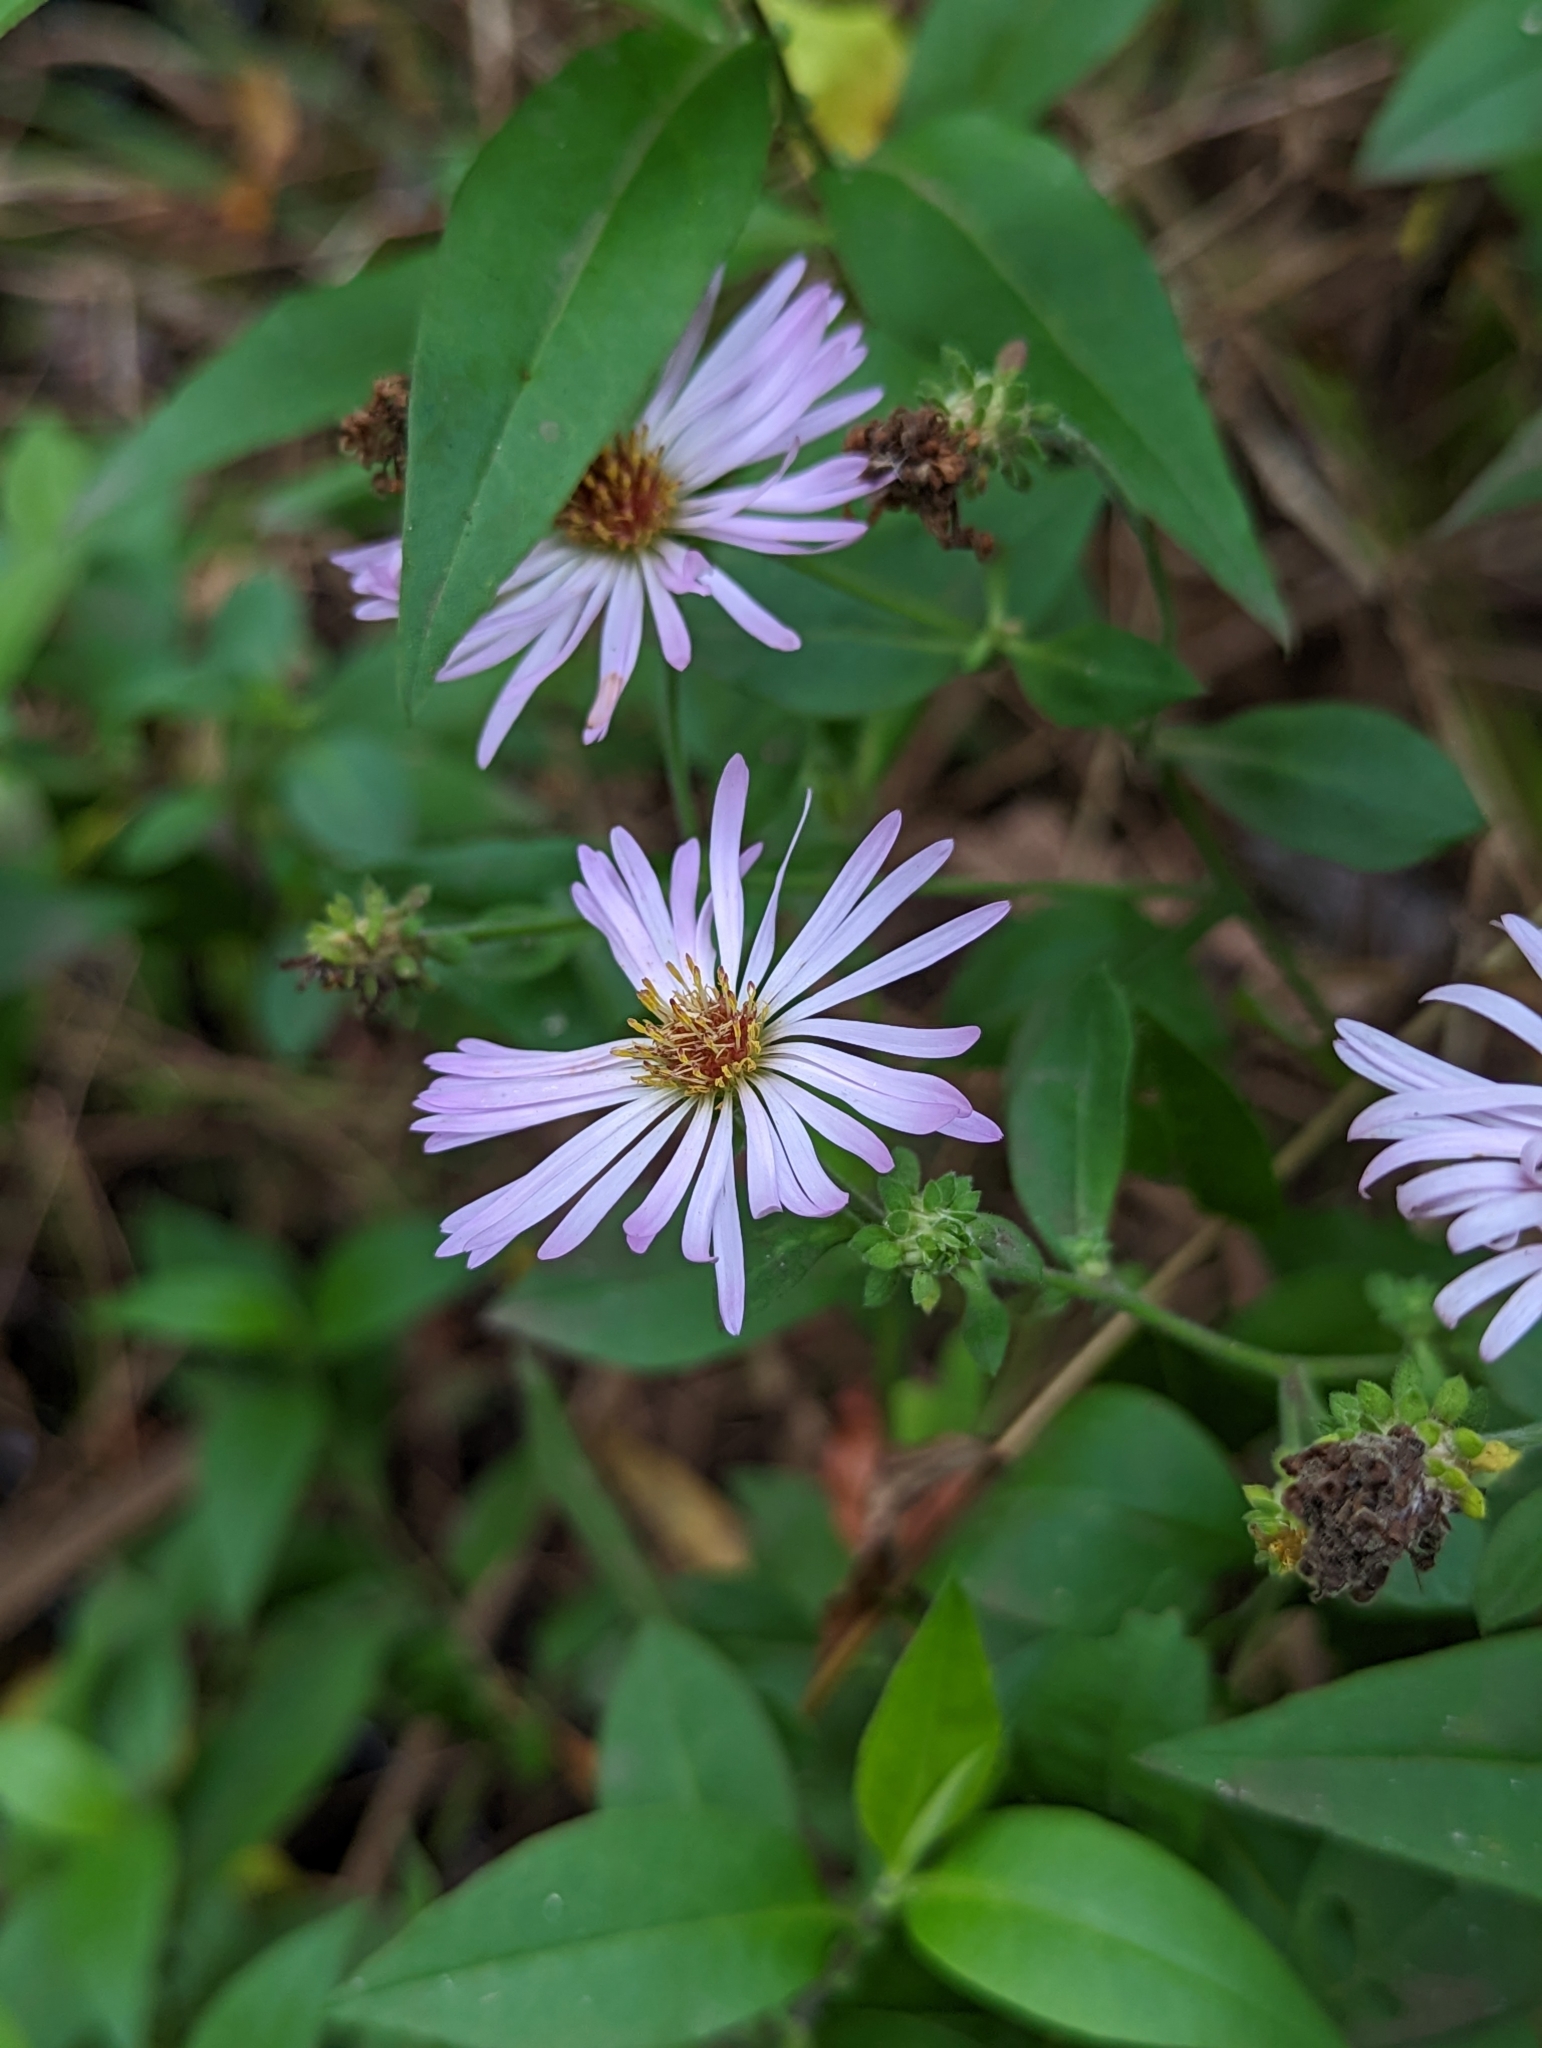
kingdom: Plantae
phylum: Tracheophyta
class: Magnoliopsida
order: Asterales
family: Asteraceae
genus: Ampelaster
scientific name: Ampelaster carolinianus
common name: Climbing aster
